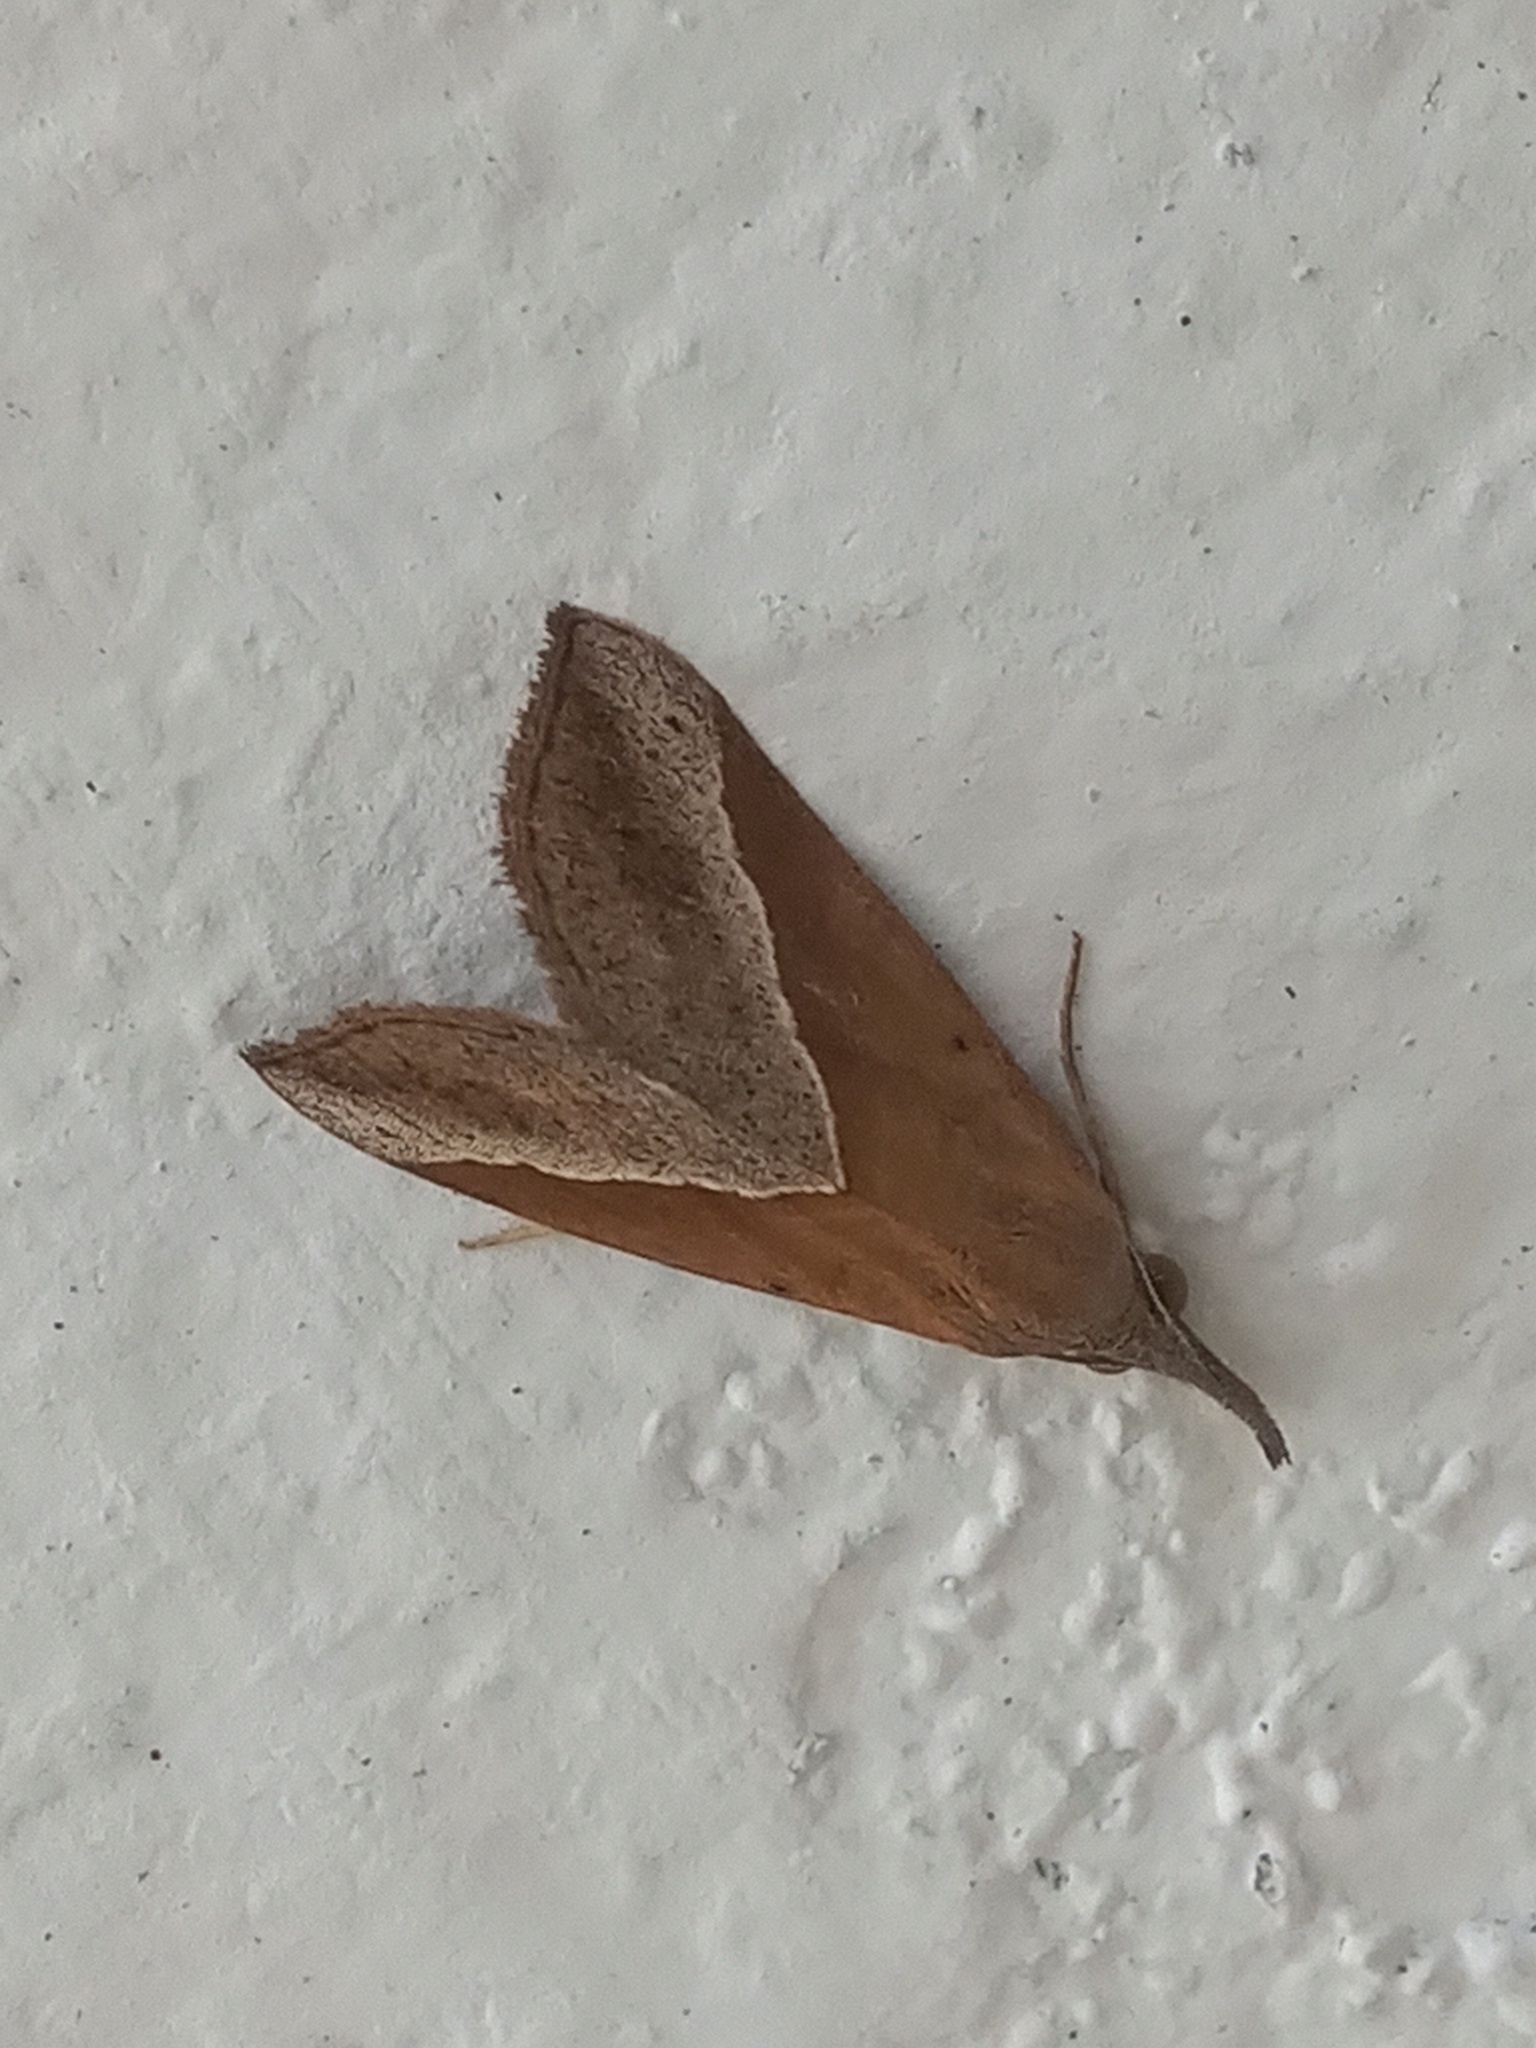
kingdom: Animalia
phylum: Arthropoda
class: Insecta
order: Lepidoptera
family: Erebidae
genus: Hypena
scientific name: Hypena lividalis
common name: Chevron snout
